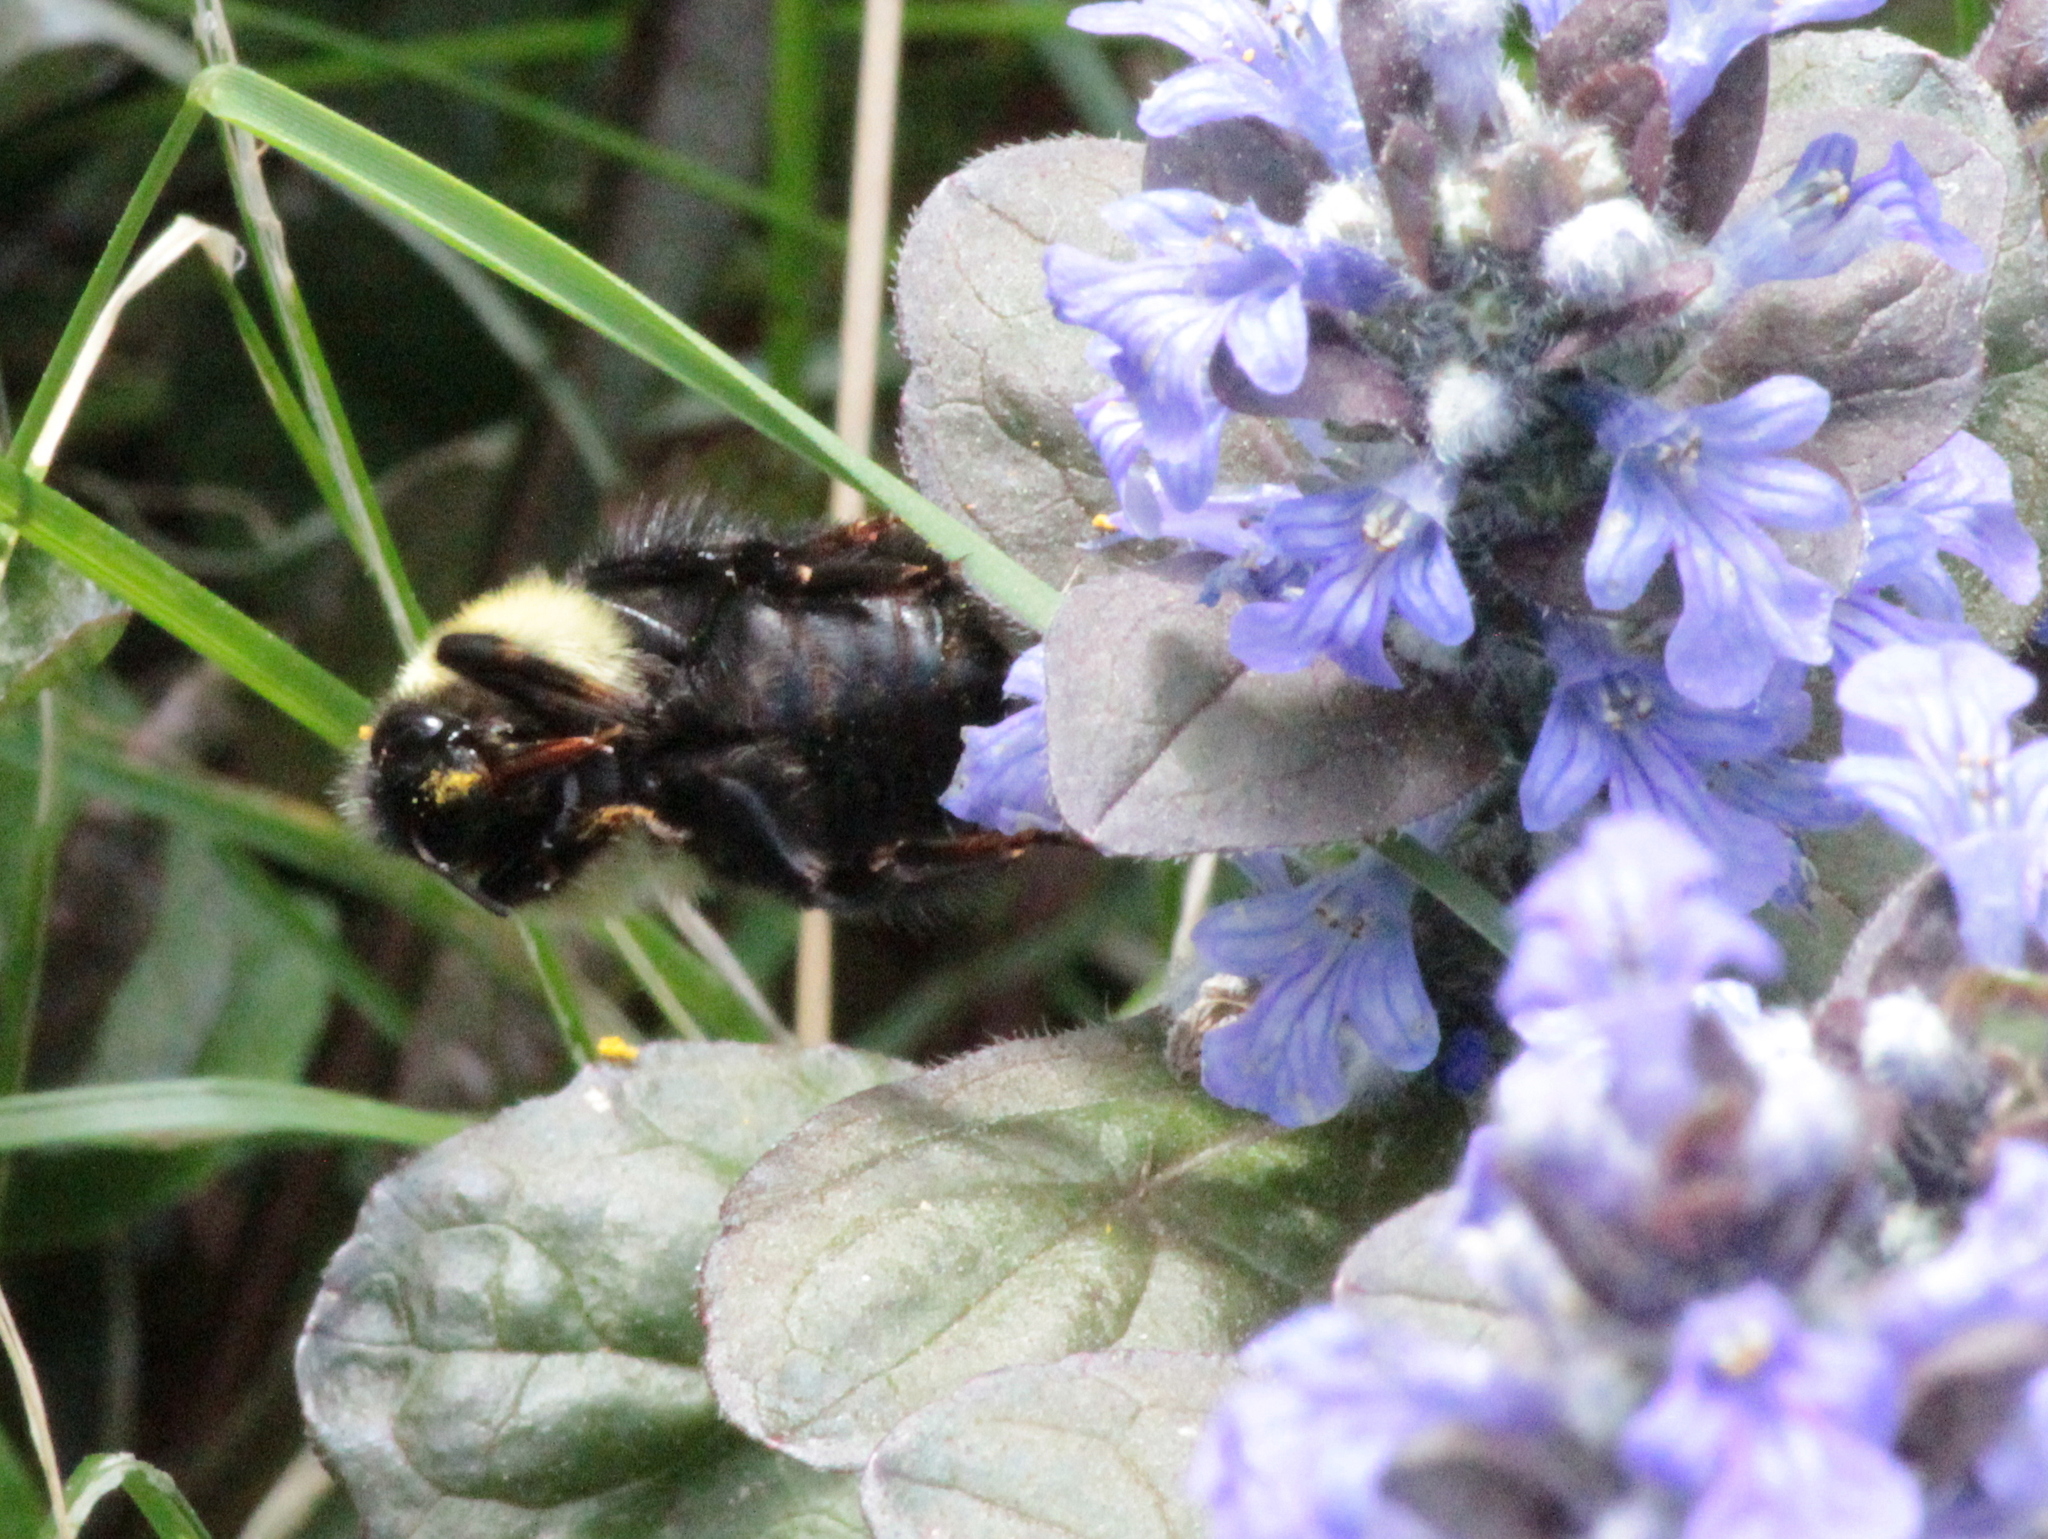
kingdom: Animalia
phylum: Arthropoda
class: Insecta
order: Hymenoptera
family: Apidae
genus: Bombus
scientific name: Bombus bimaculatus
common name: Two-spotted bumble bee
